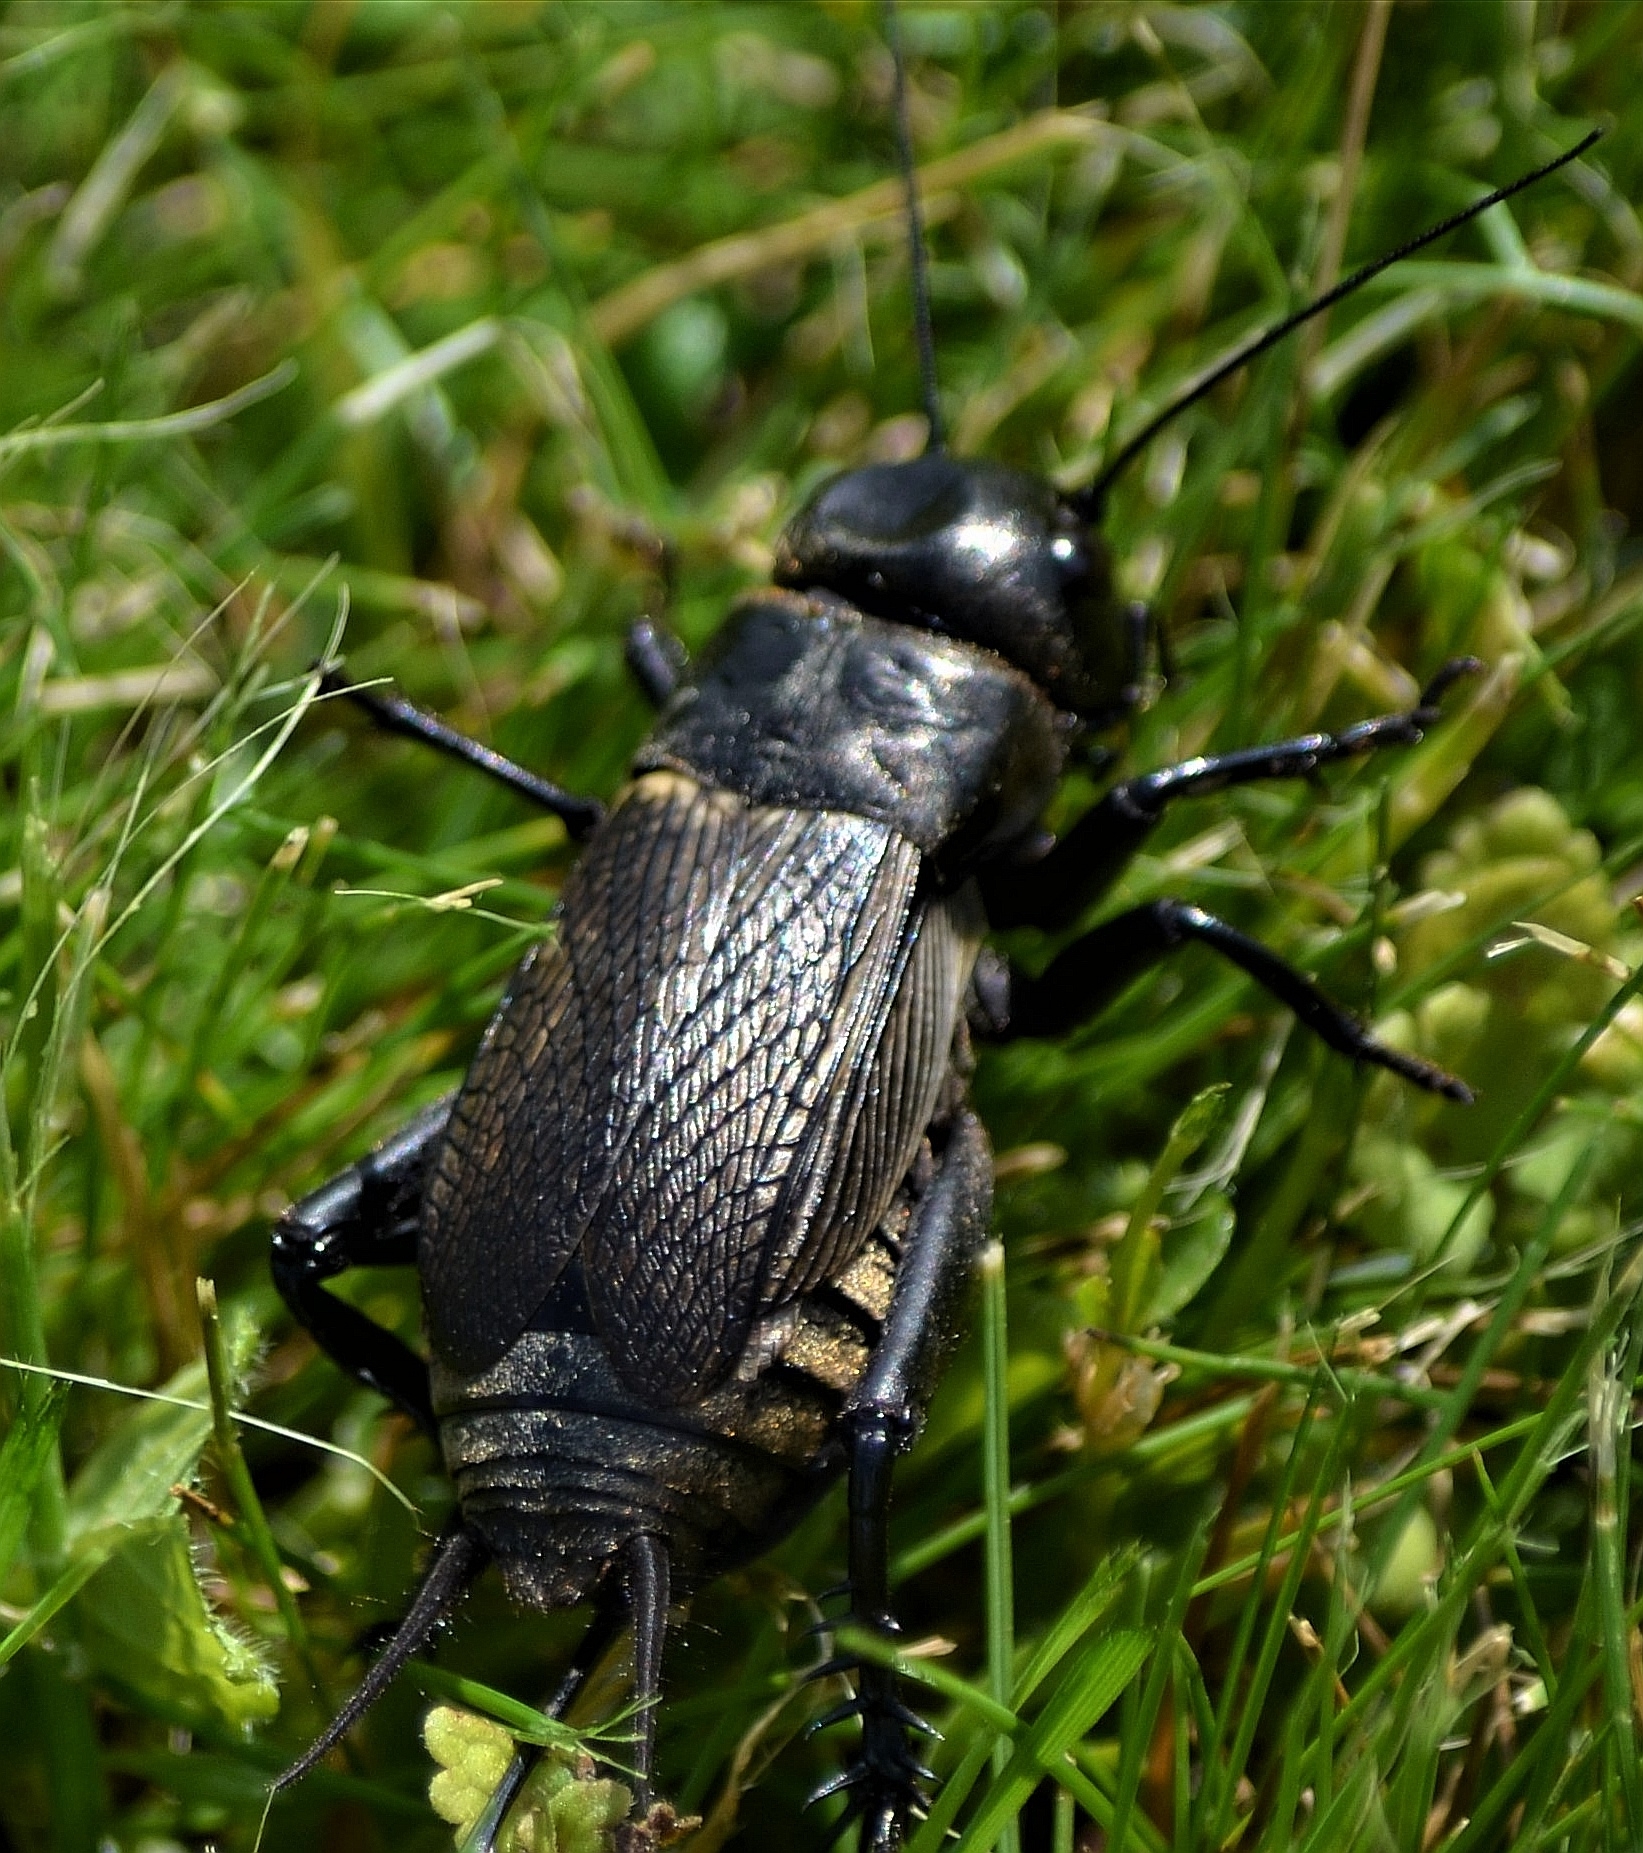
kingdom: Animalia
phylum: Arthropoda
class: Insecta
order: Orthoptera
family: Gryllidae
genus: Gryllus
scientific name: Gryllus campestris
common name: Field cricket
